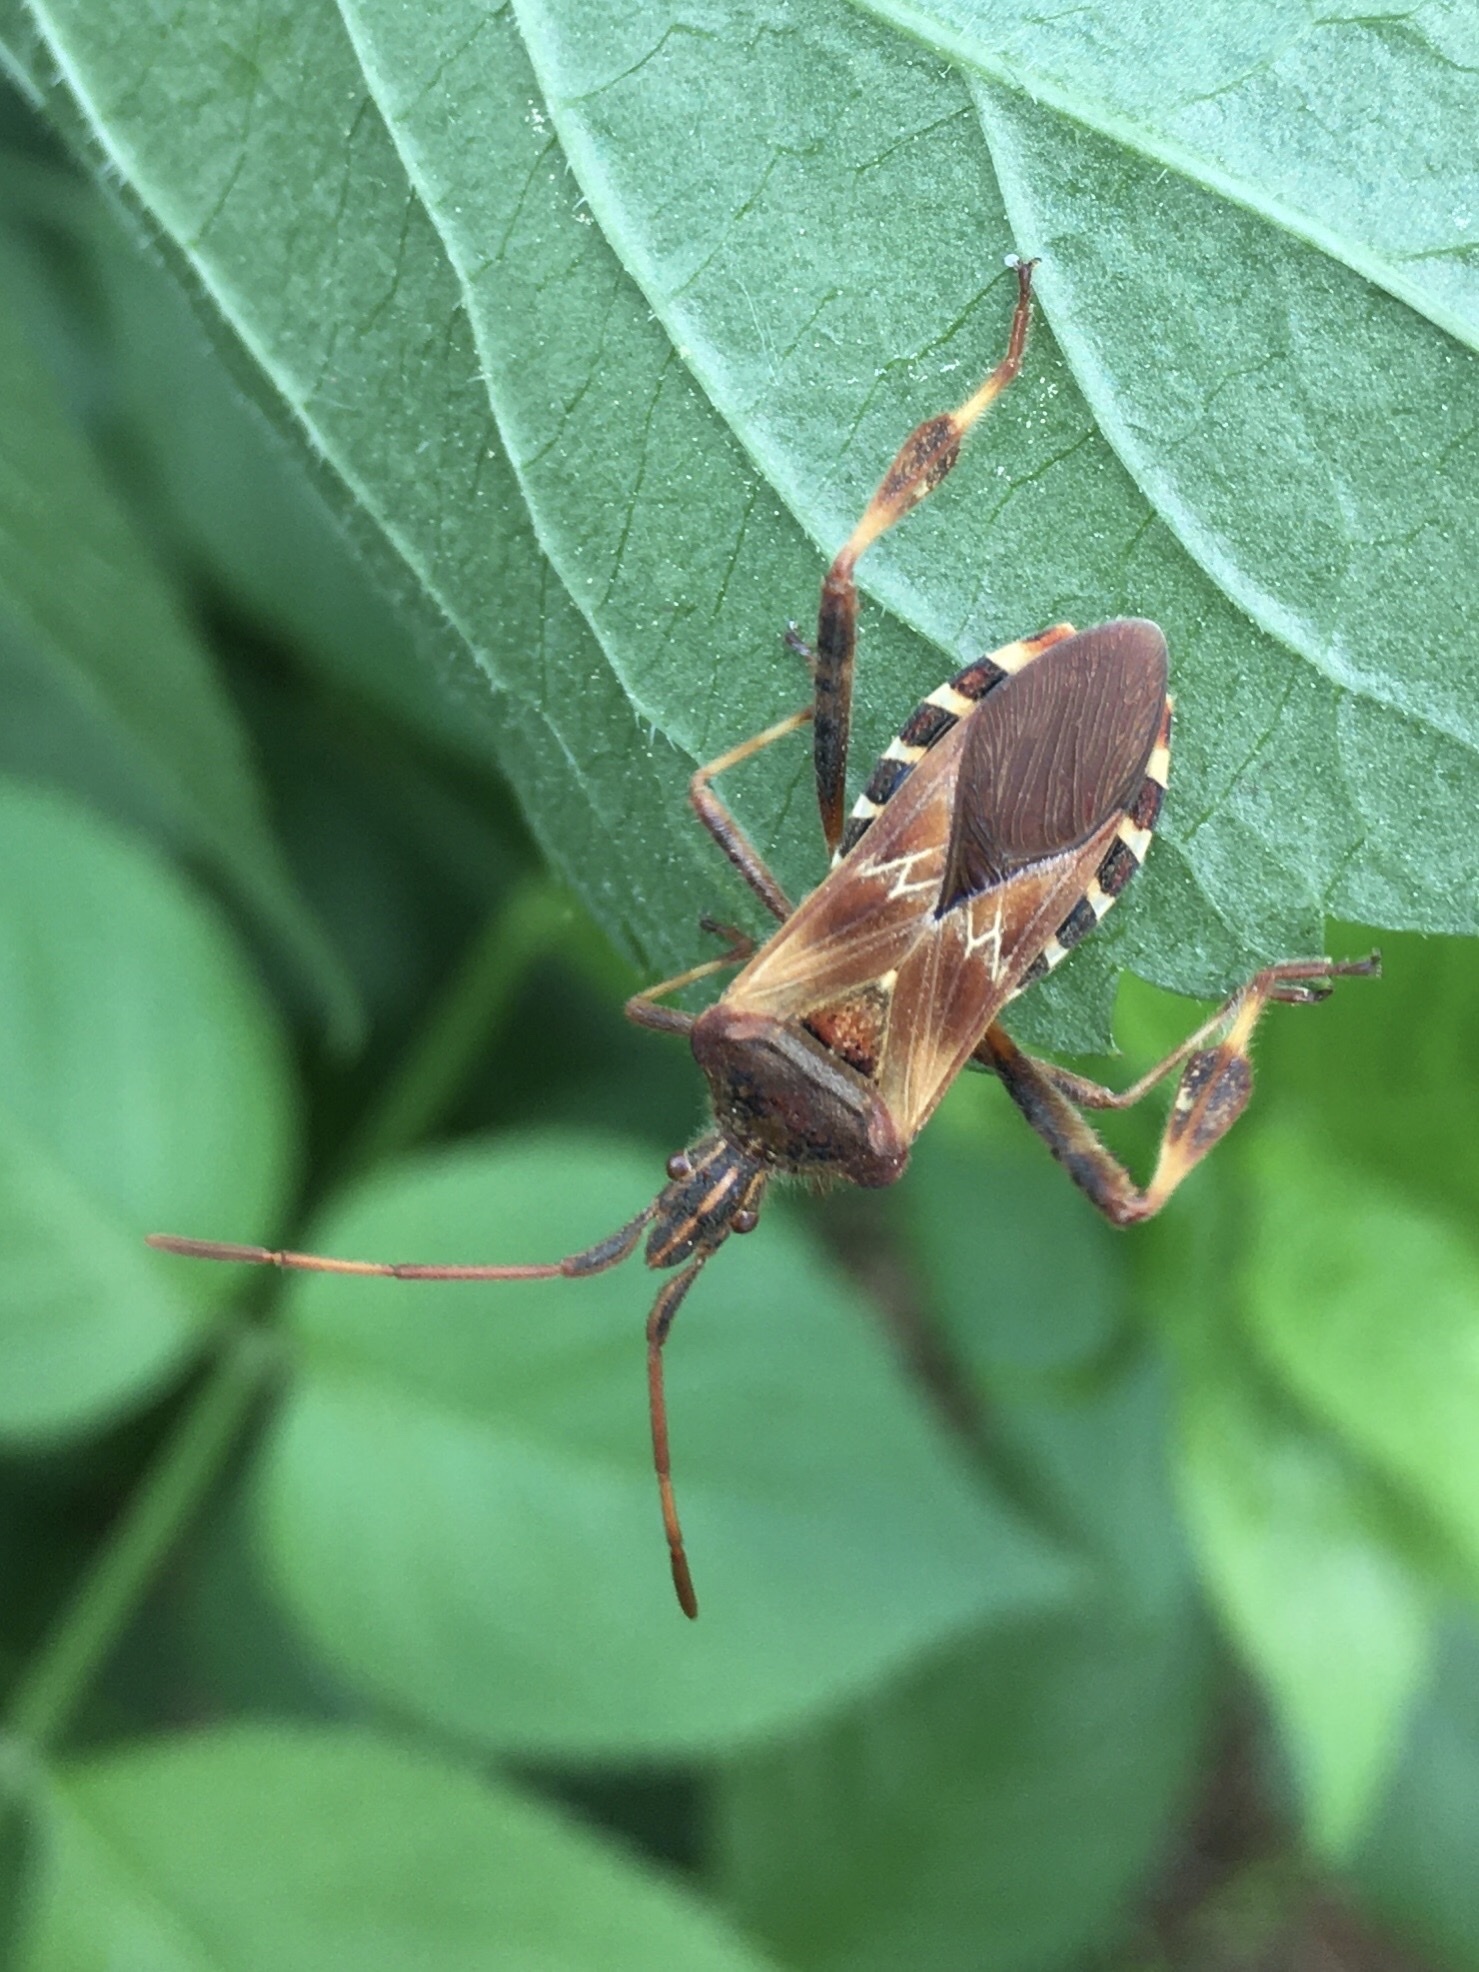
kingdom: Animalia
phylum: Arthropoda
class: Insecta
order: Hemiptera
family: Coreidae
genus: Leptoglossus
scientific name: Leptoglossus occidentalis
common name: Western conifer-seed bug
